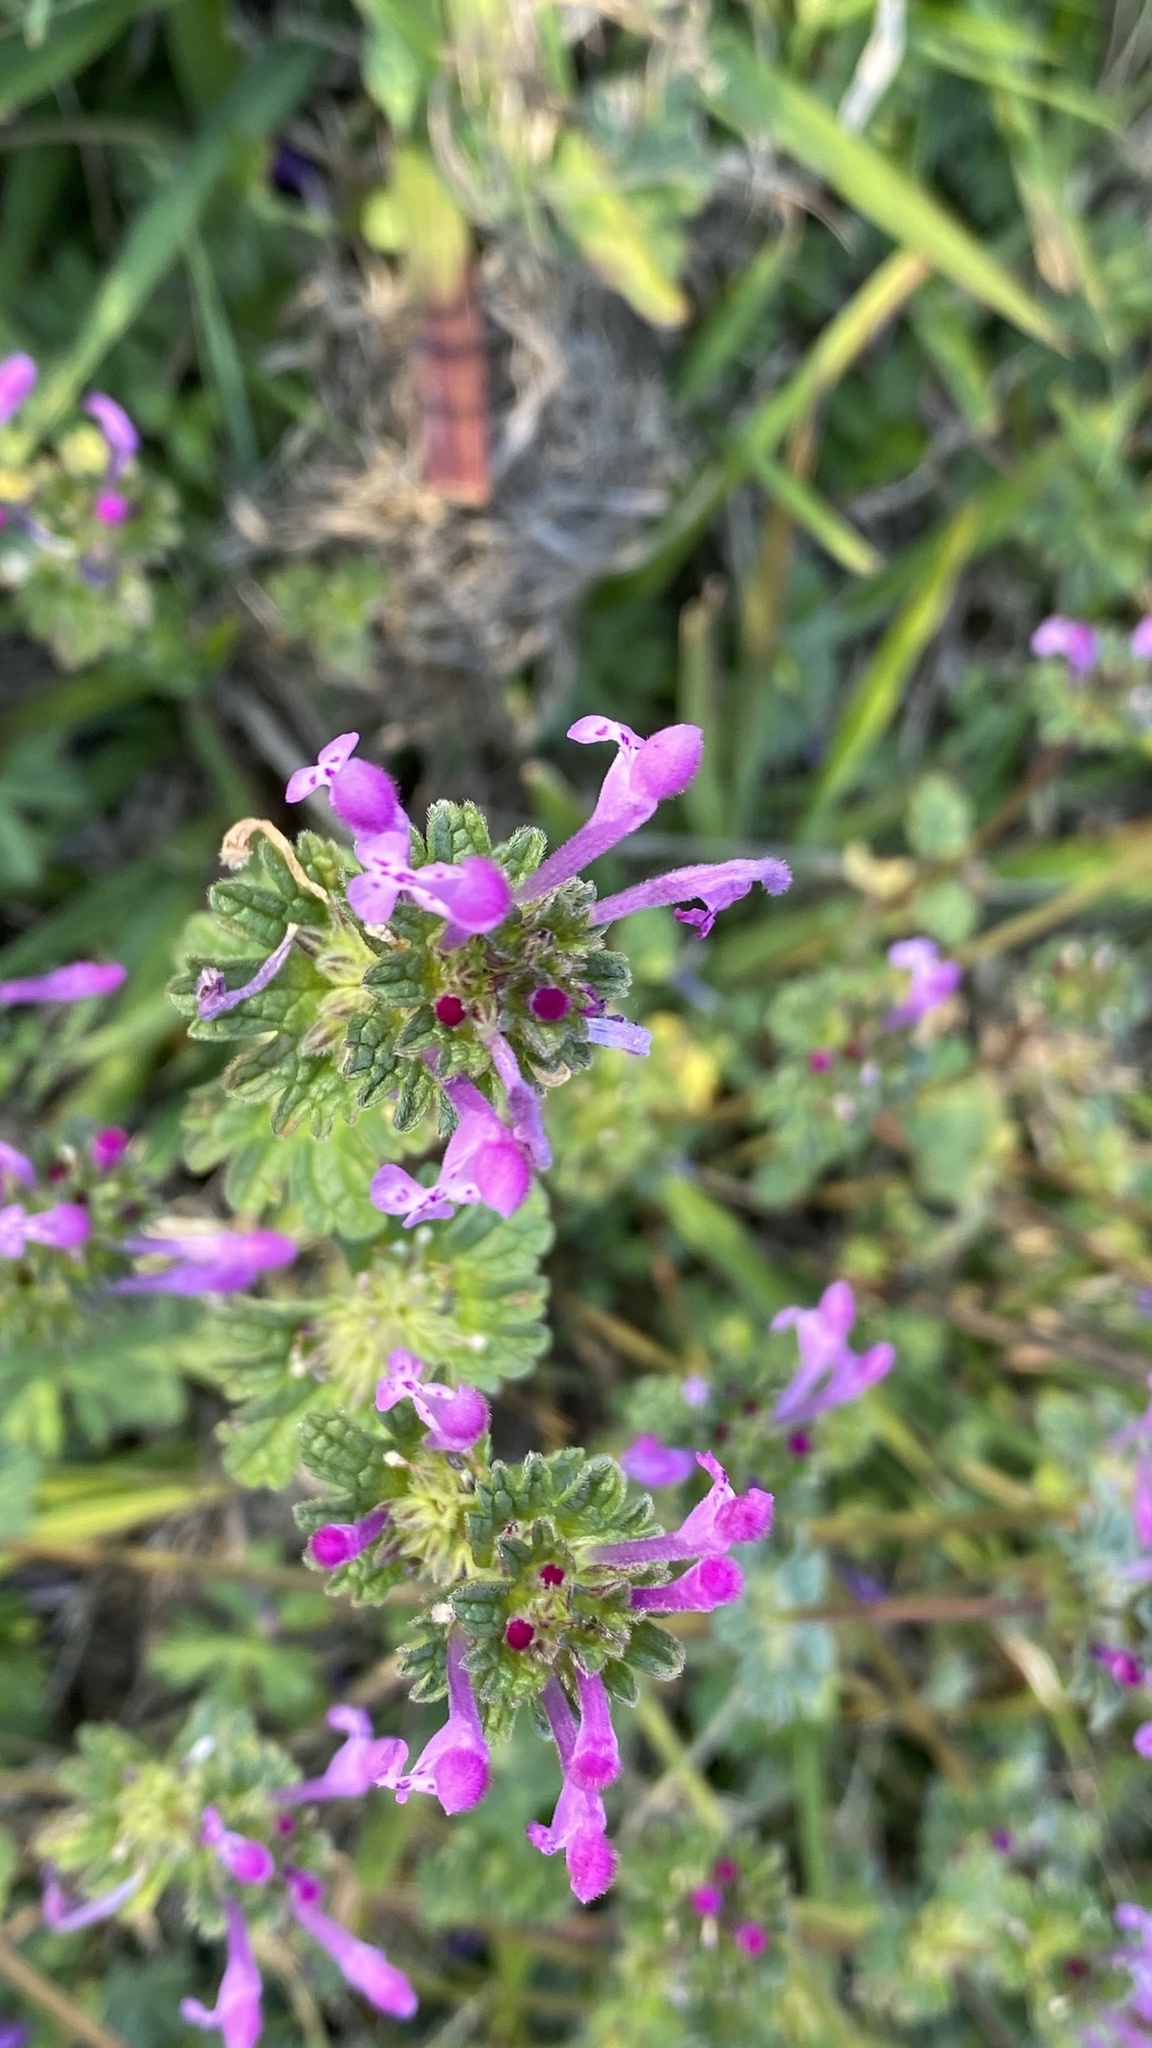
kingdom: Plantae
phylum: Tracheophyta
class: Magnoliopsida
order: Lamiales
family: Lamiaceae
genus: Lamium
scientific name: Lamium amplexicaule
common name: Henbit dead-nettle
